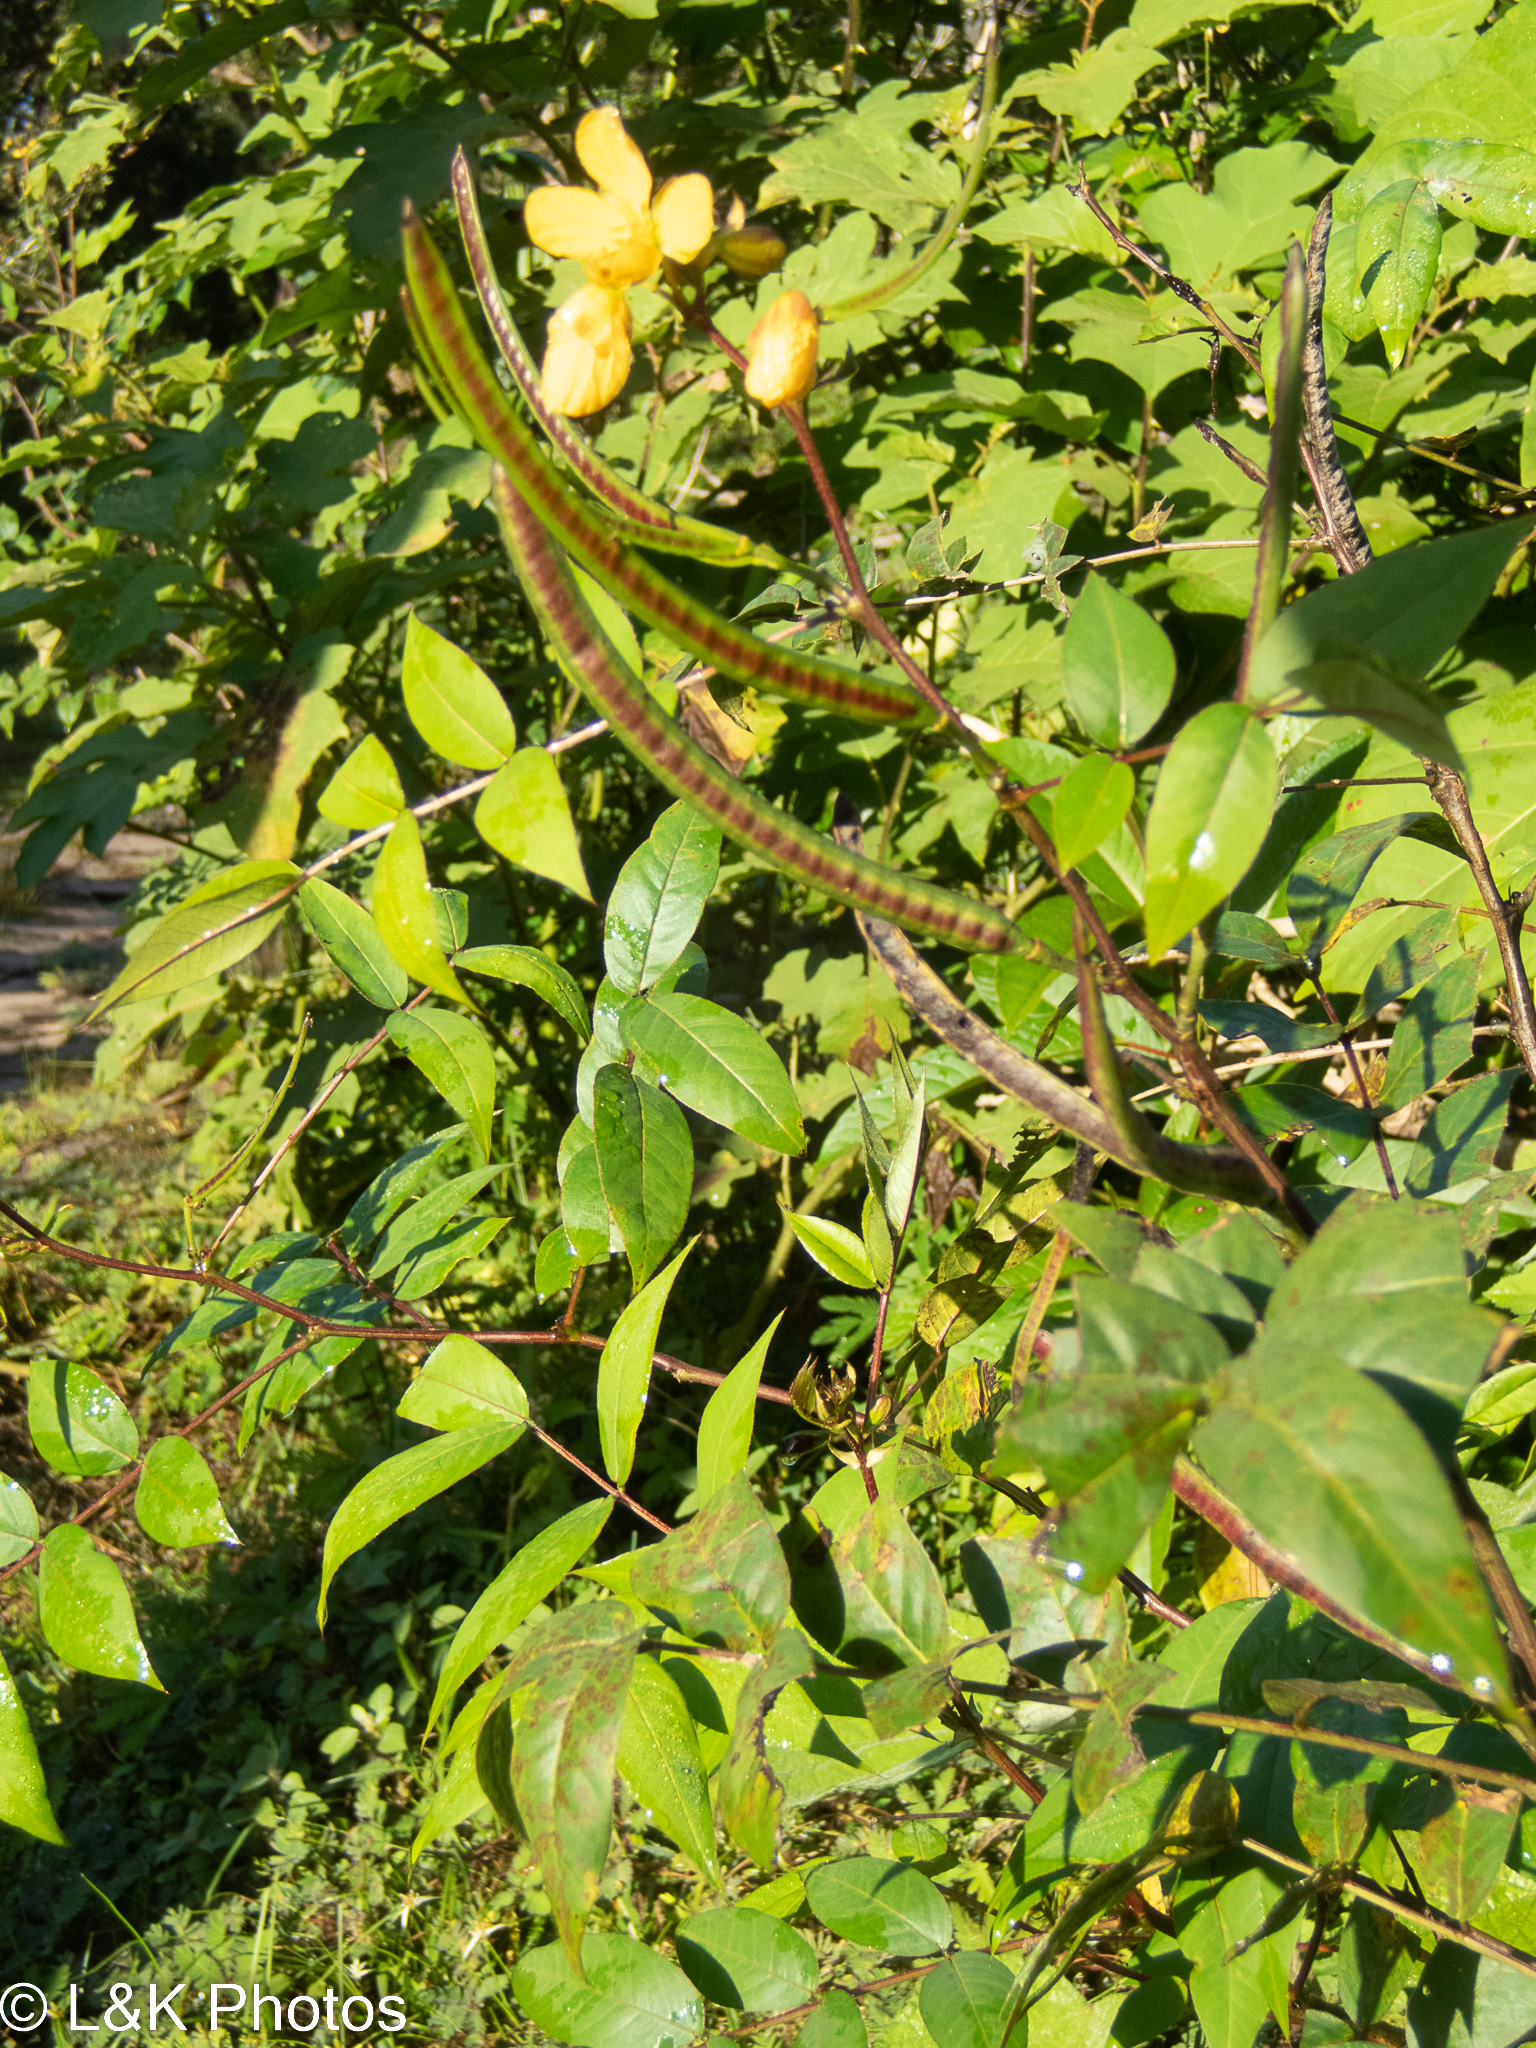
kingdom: Plantae
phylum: Tracheophyta
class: Magnoliopsida
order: Fabales
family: Fabaceae
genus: Senna
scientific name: Senna occidentalis
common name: Septicweed
